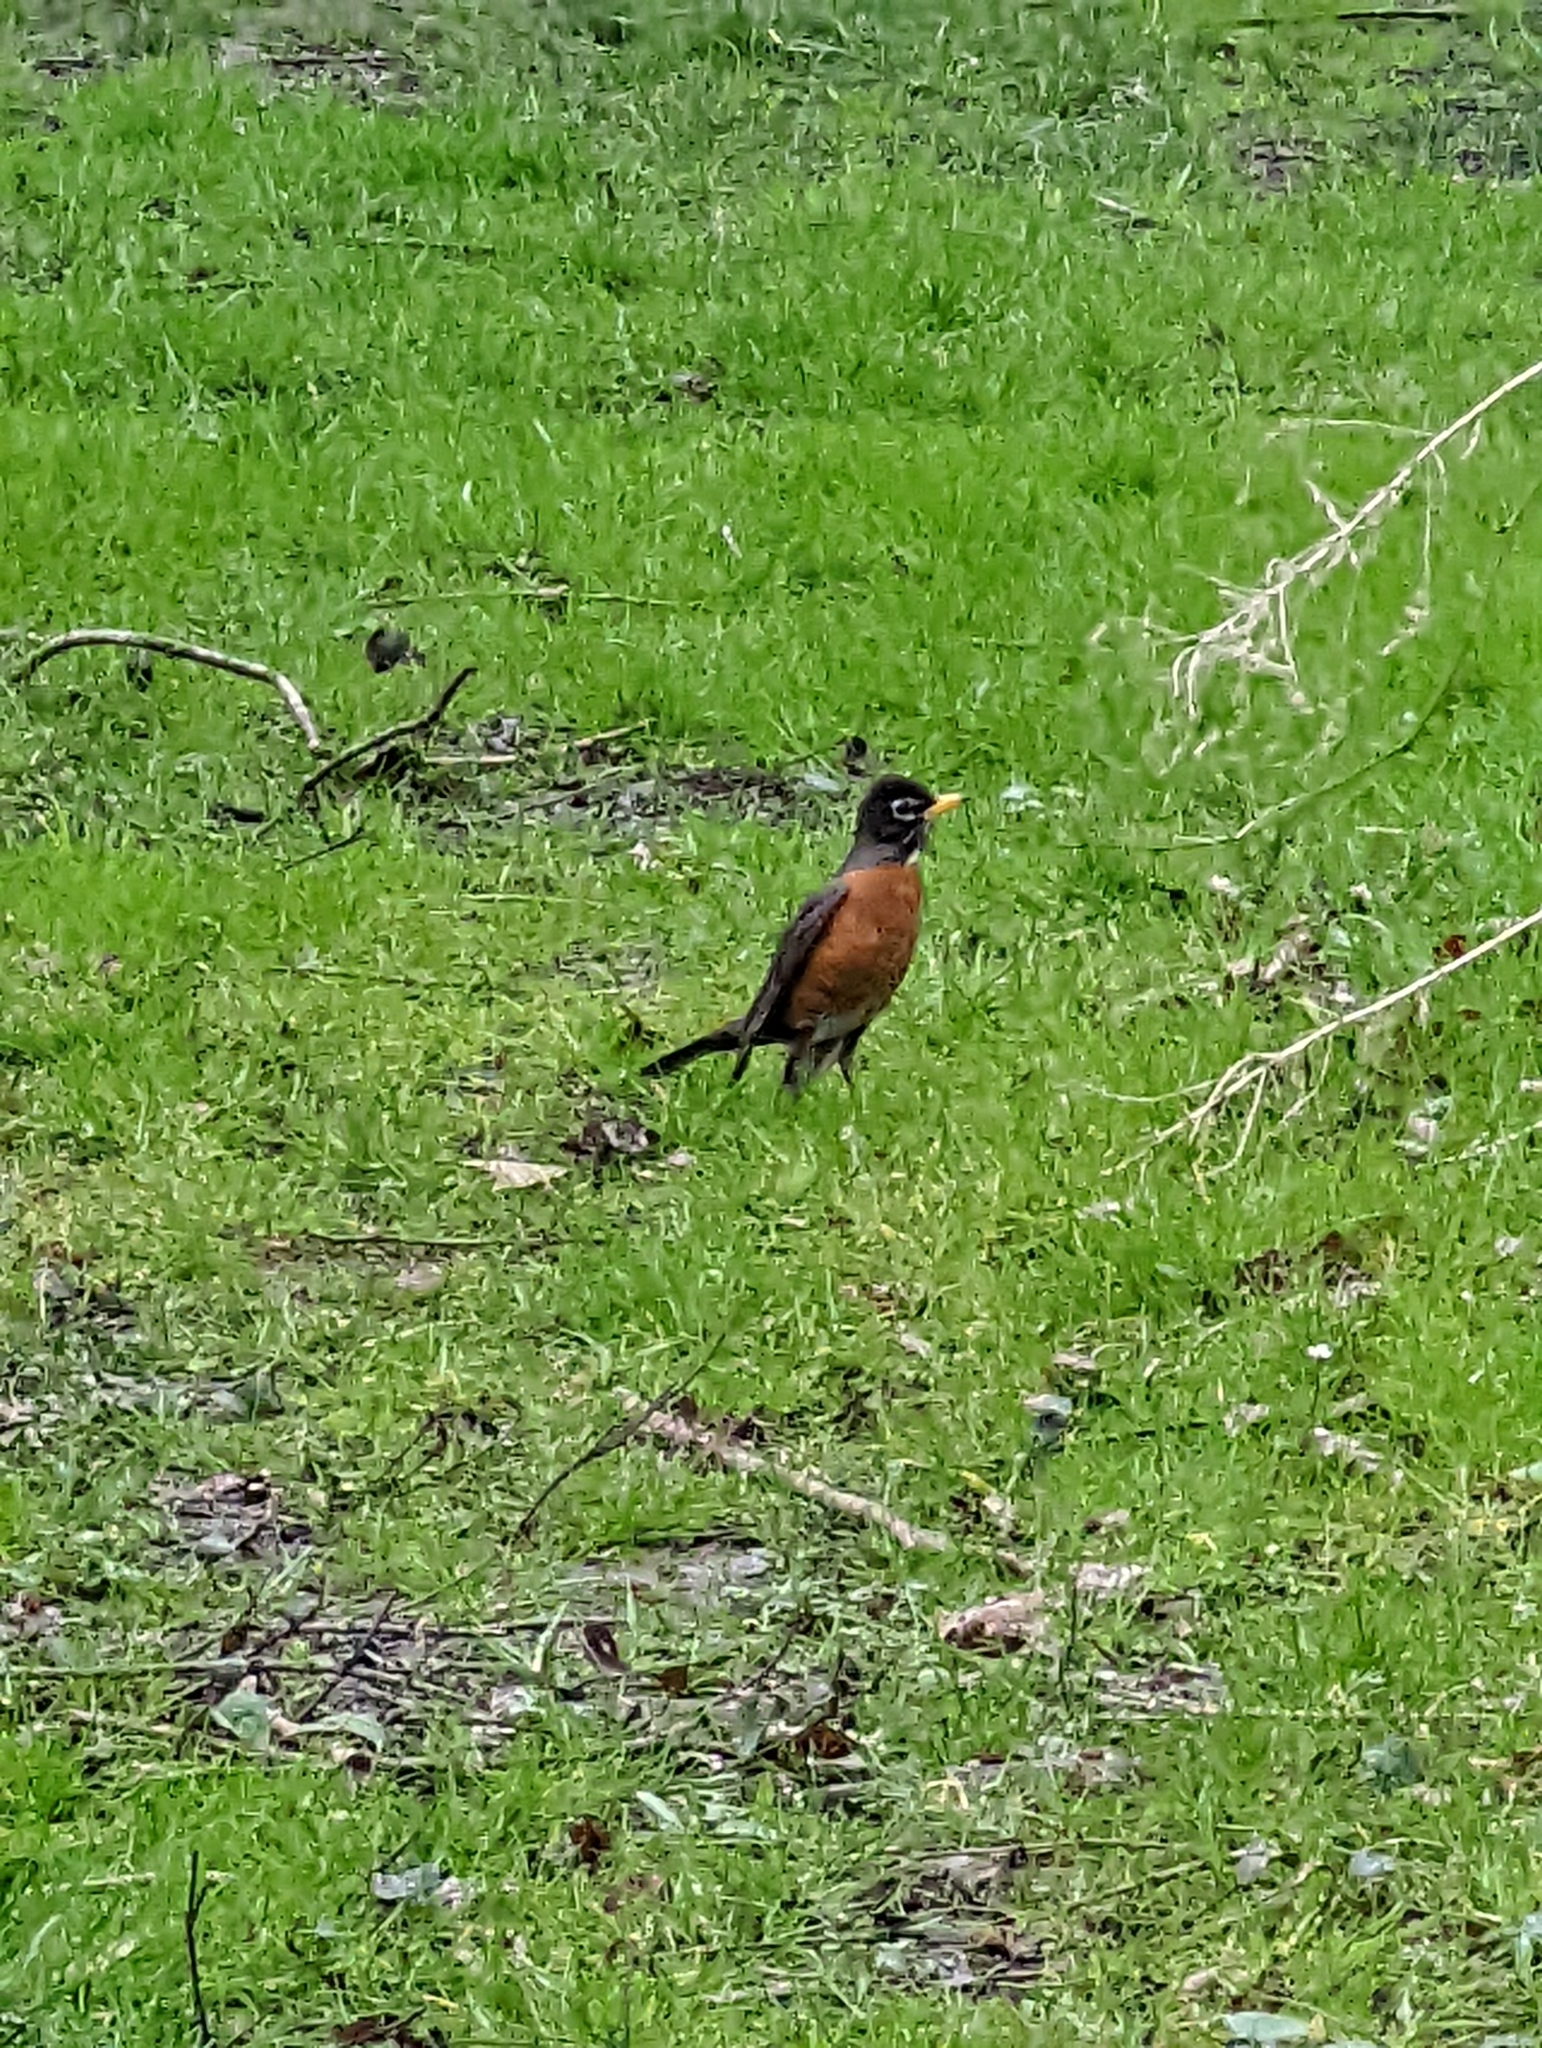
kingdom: Animalia
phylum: Chordata
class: Aves
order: Passeriformes
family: Turdidae
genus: Turdus
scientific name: Turdus migratorius
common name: American robin
